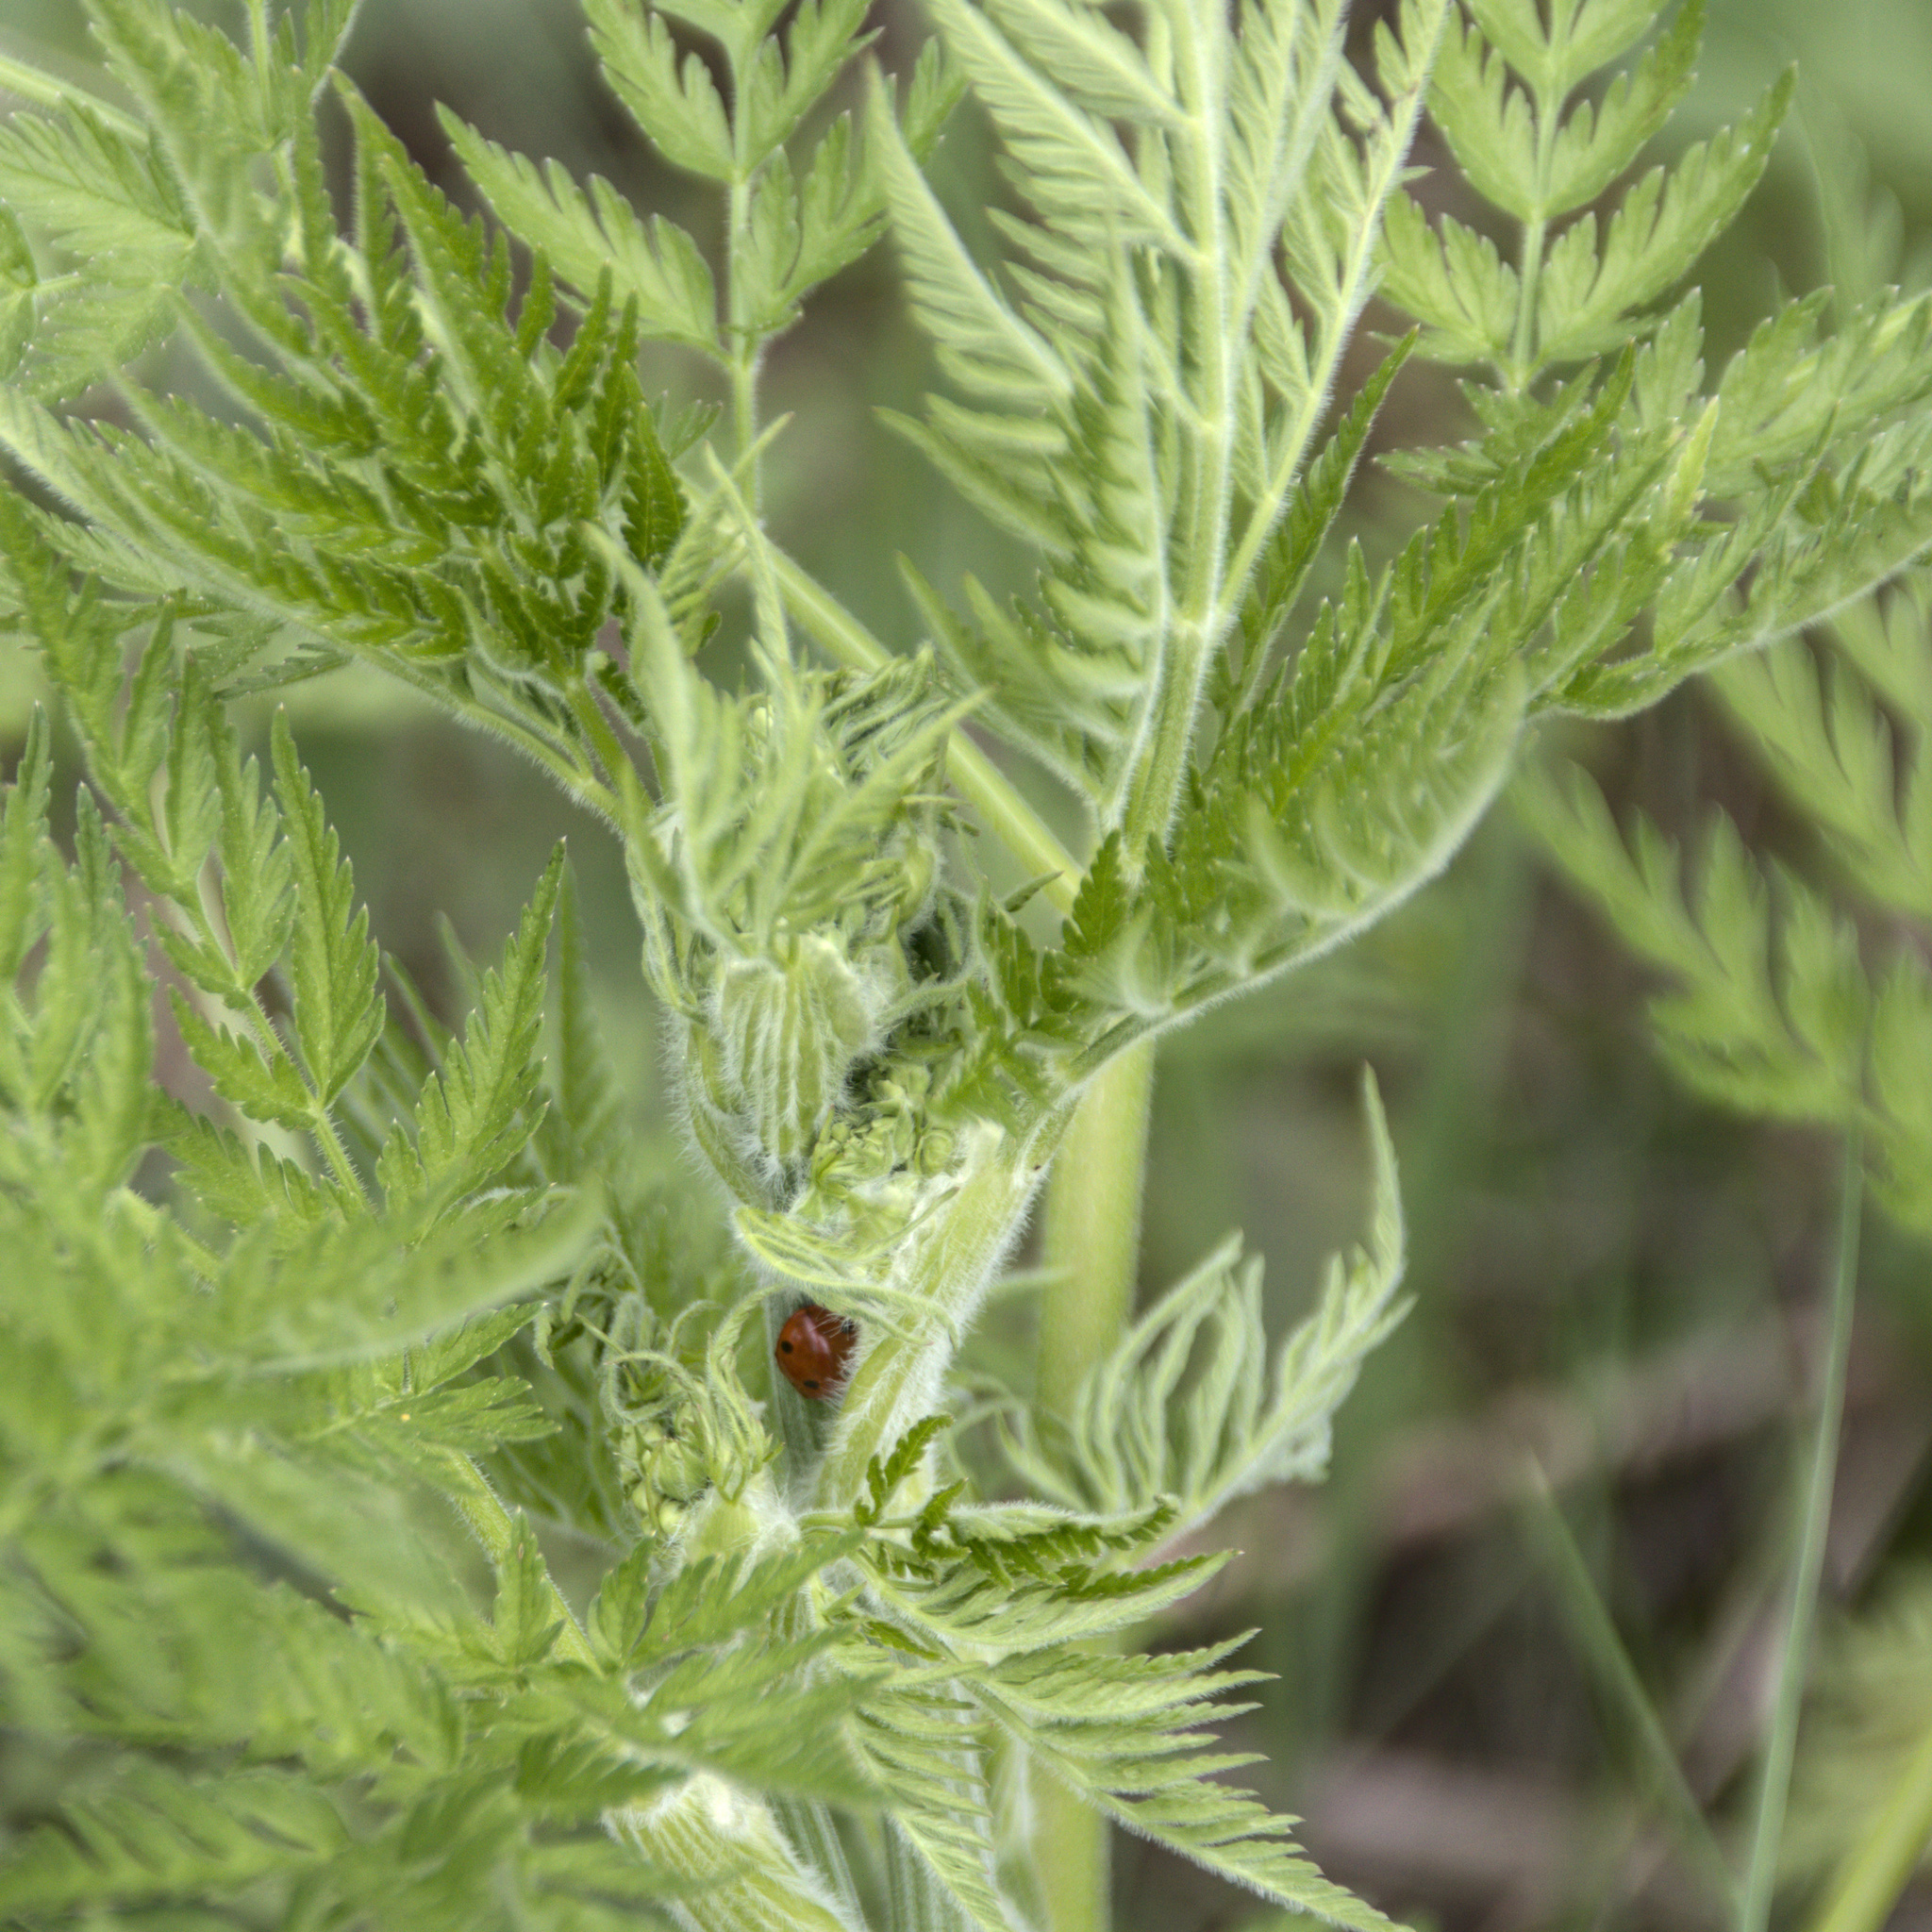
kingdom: Plantae
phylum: Tracheophyta
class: Magnoliopsida
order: Apiales
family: Apiaceae
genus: Anthriscus
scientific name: Anthriscus sylvestris
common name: Cow parsley
